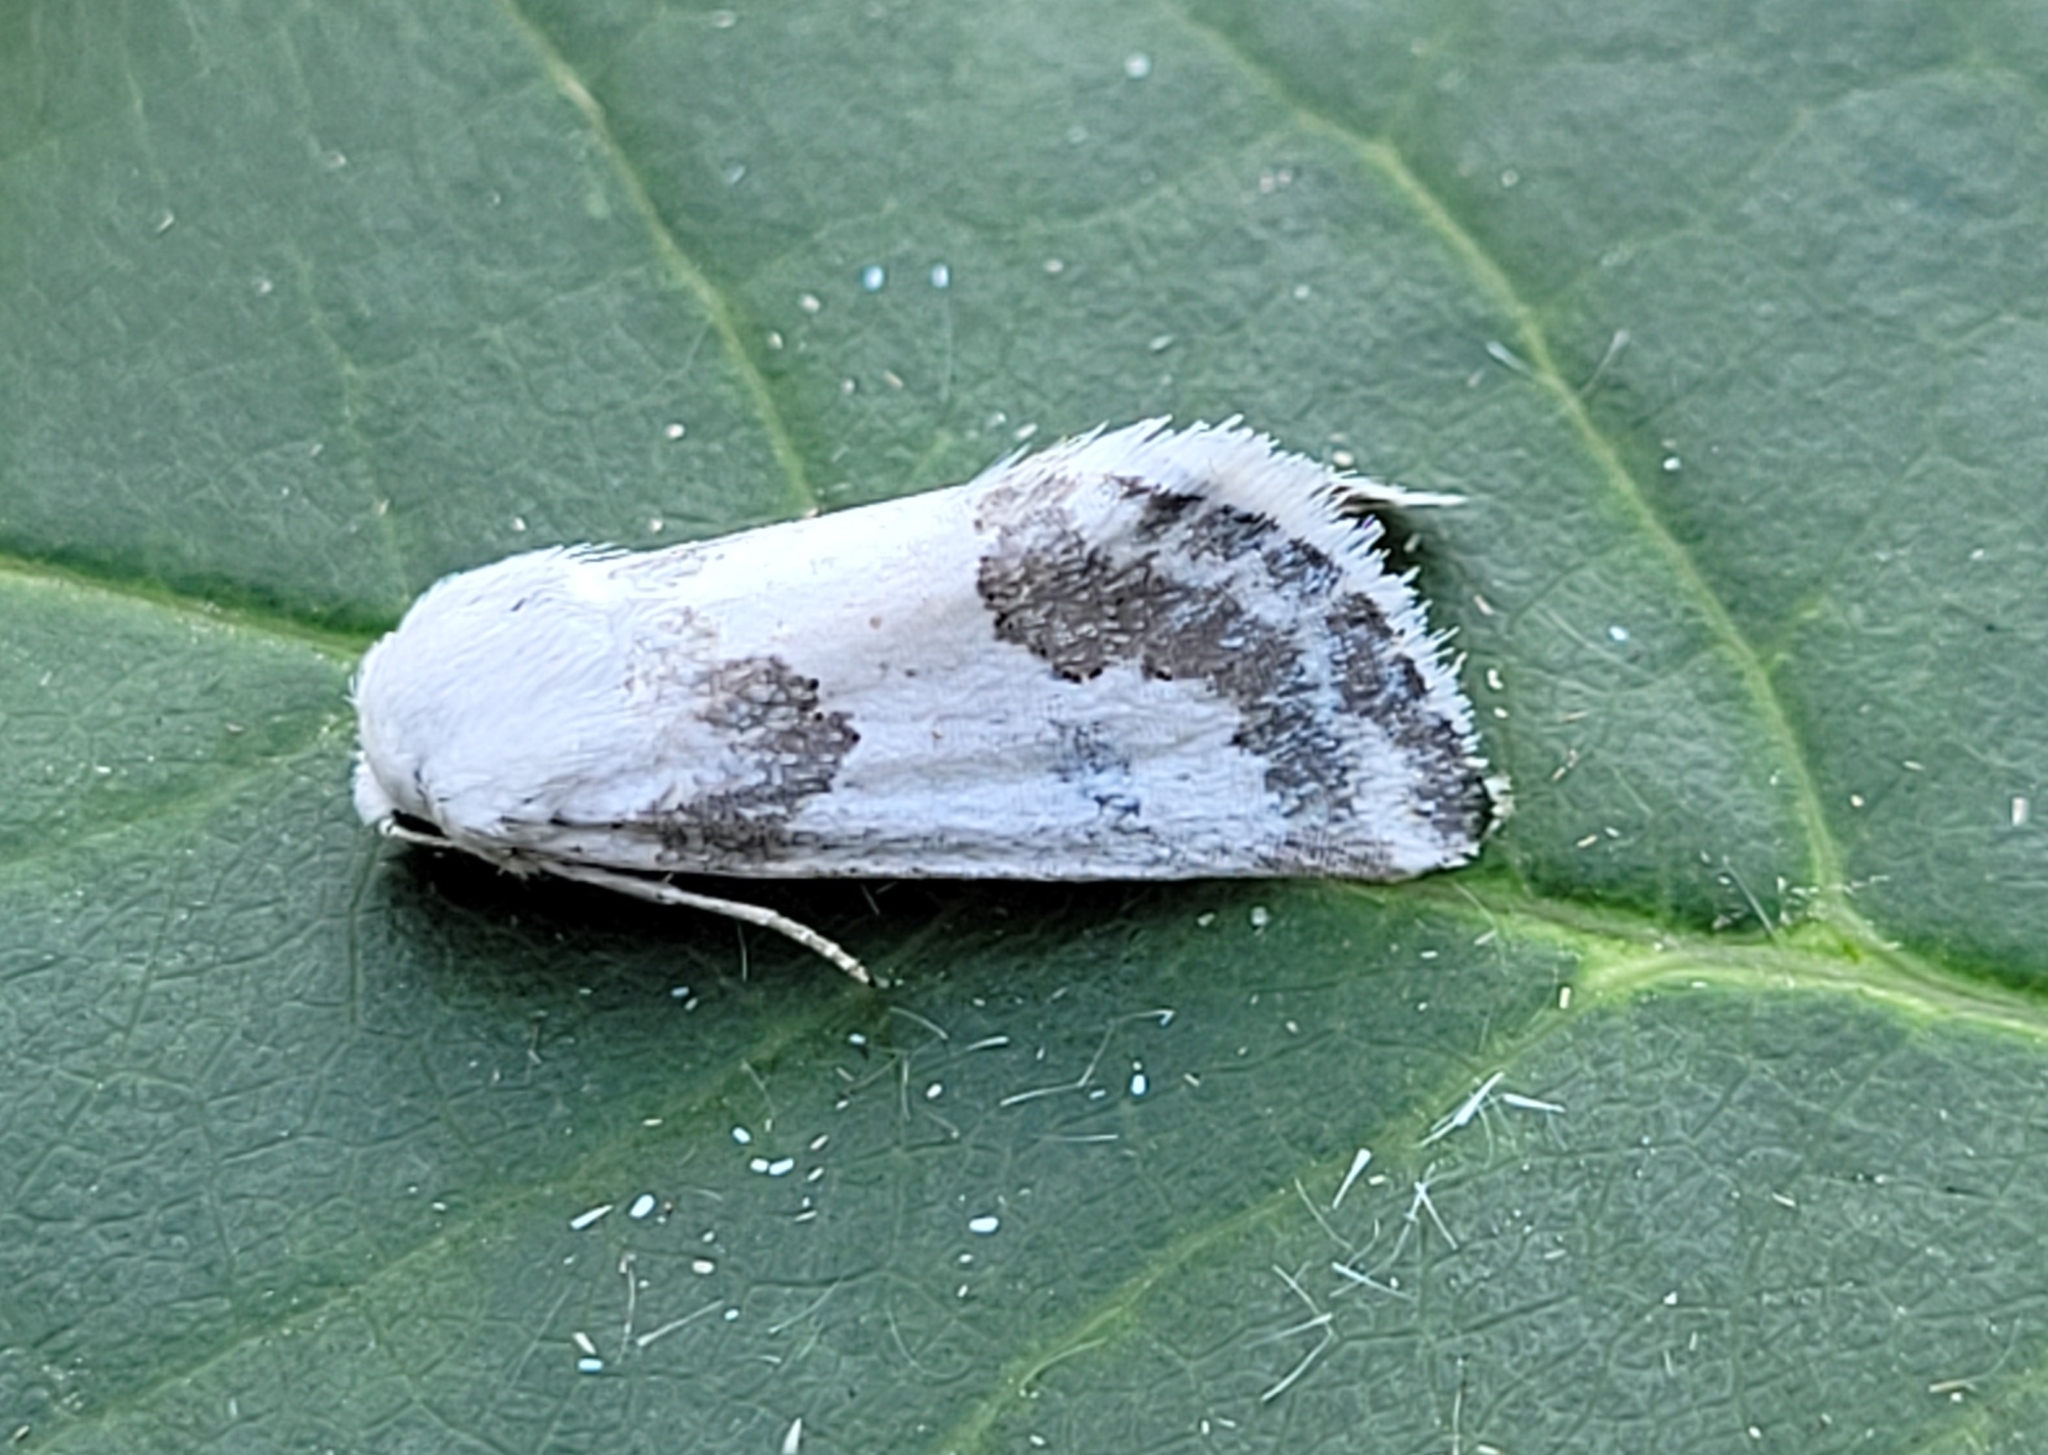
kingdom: Animalia
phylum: Arthropoda
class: Insecta
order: Lepidoptera
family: Noctuidae
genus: Schinia
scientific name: Schinia cumatilis
